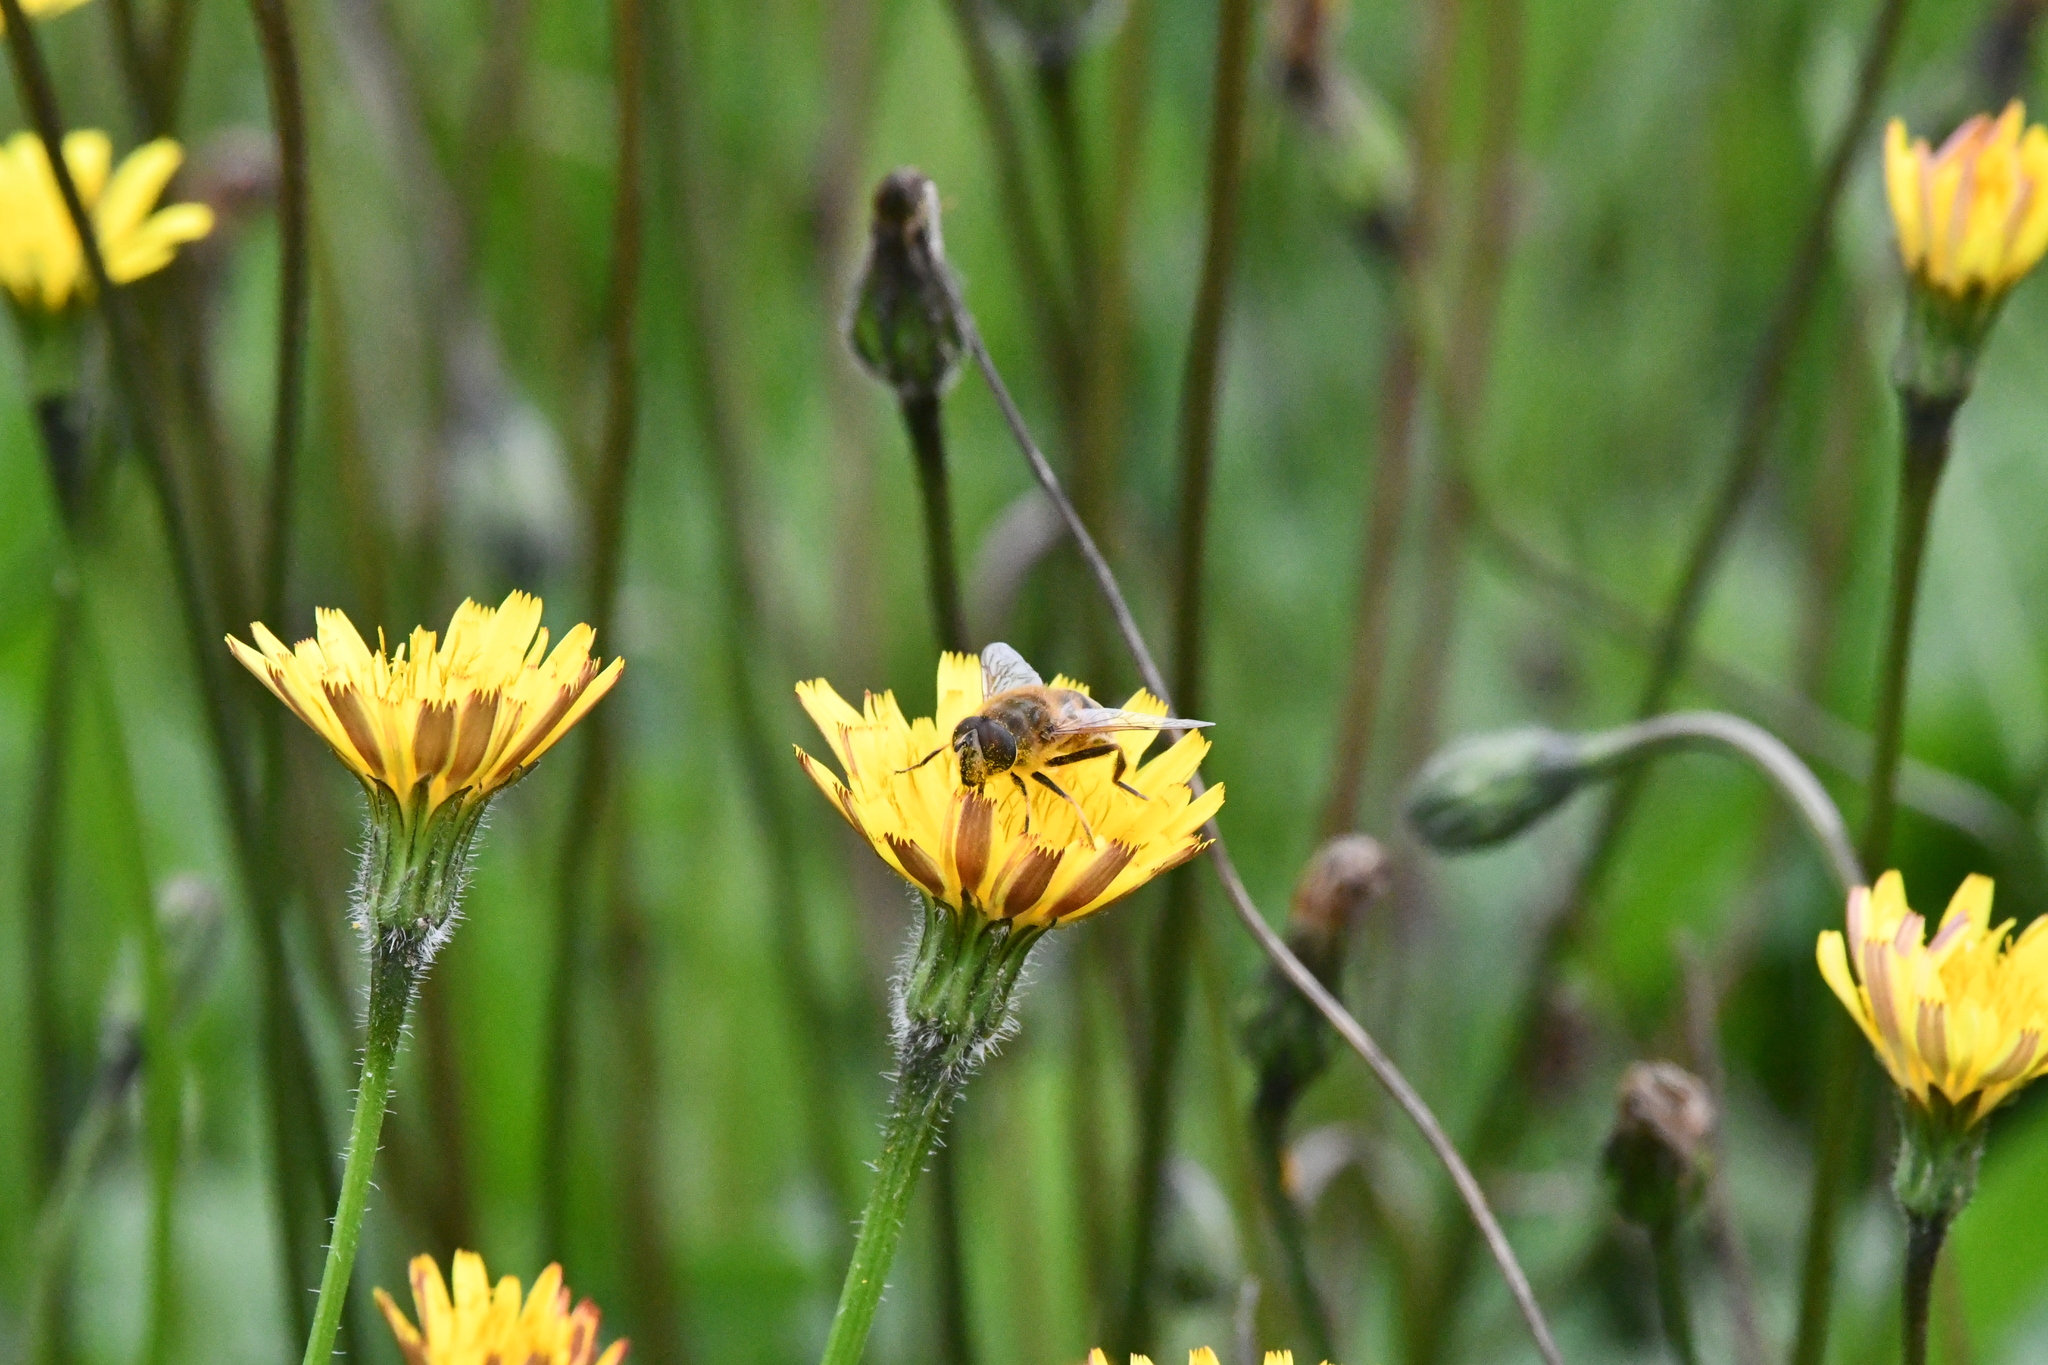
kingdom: Animalia
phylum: Arthropoda
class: Insecta
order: Diptera
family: Syrphidae
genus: Eristalis
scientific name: Eristalis tenax
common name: Drone fly
